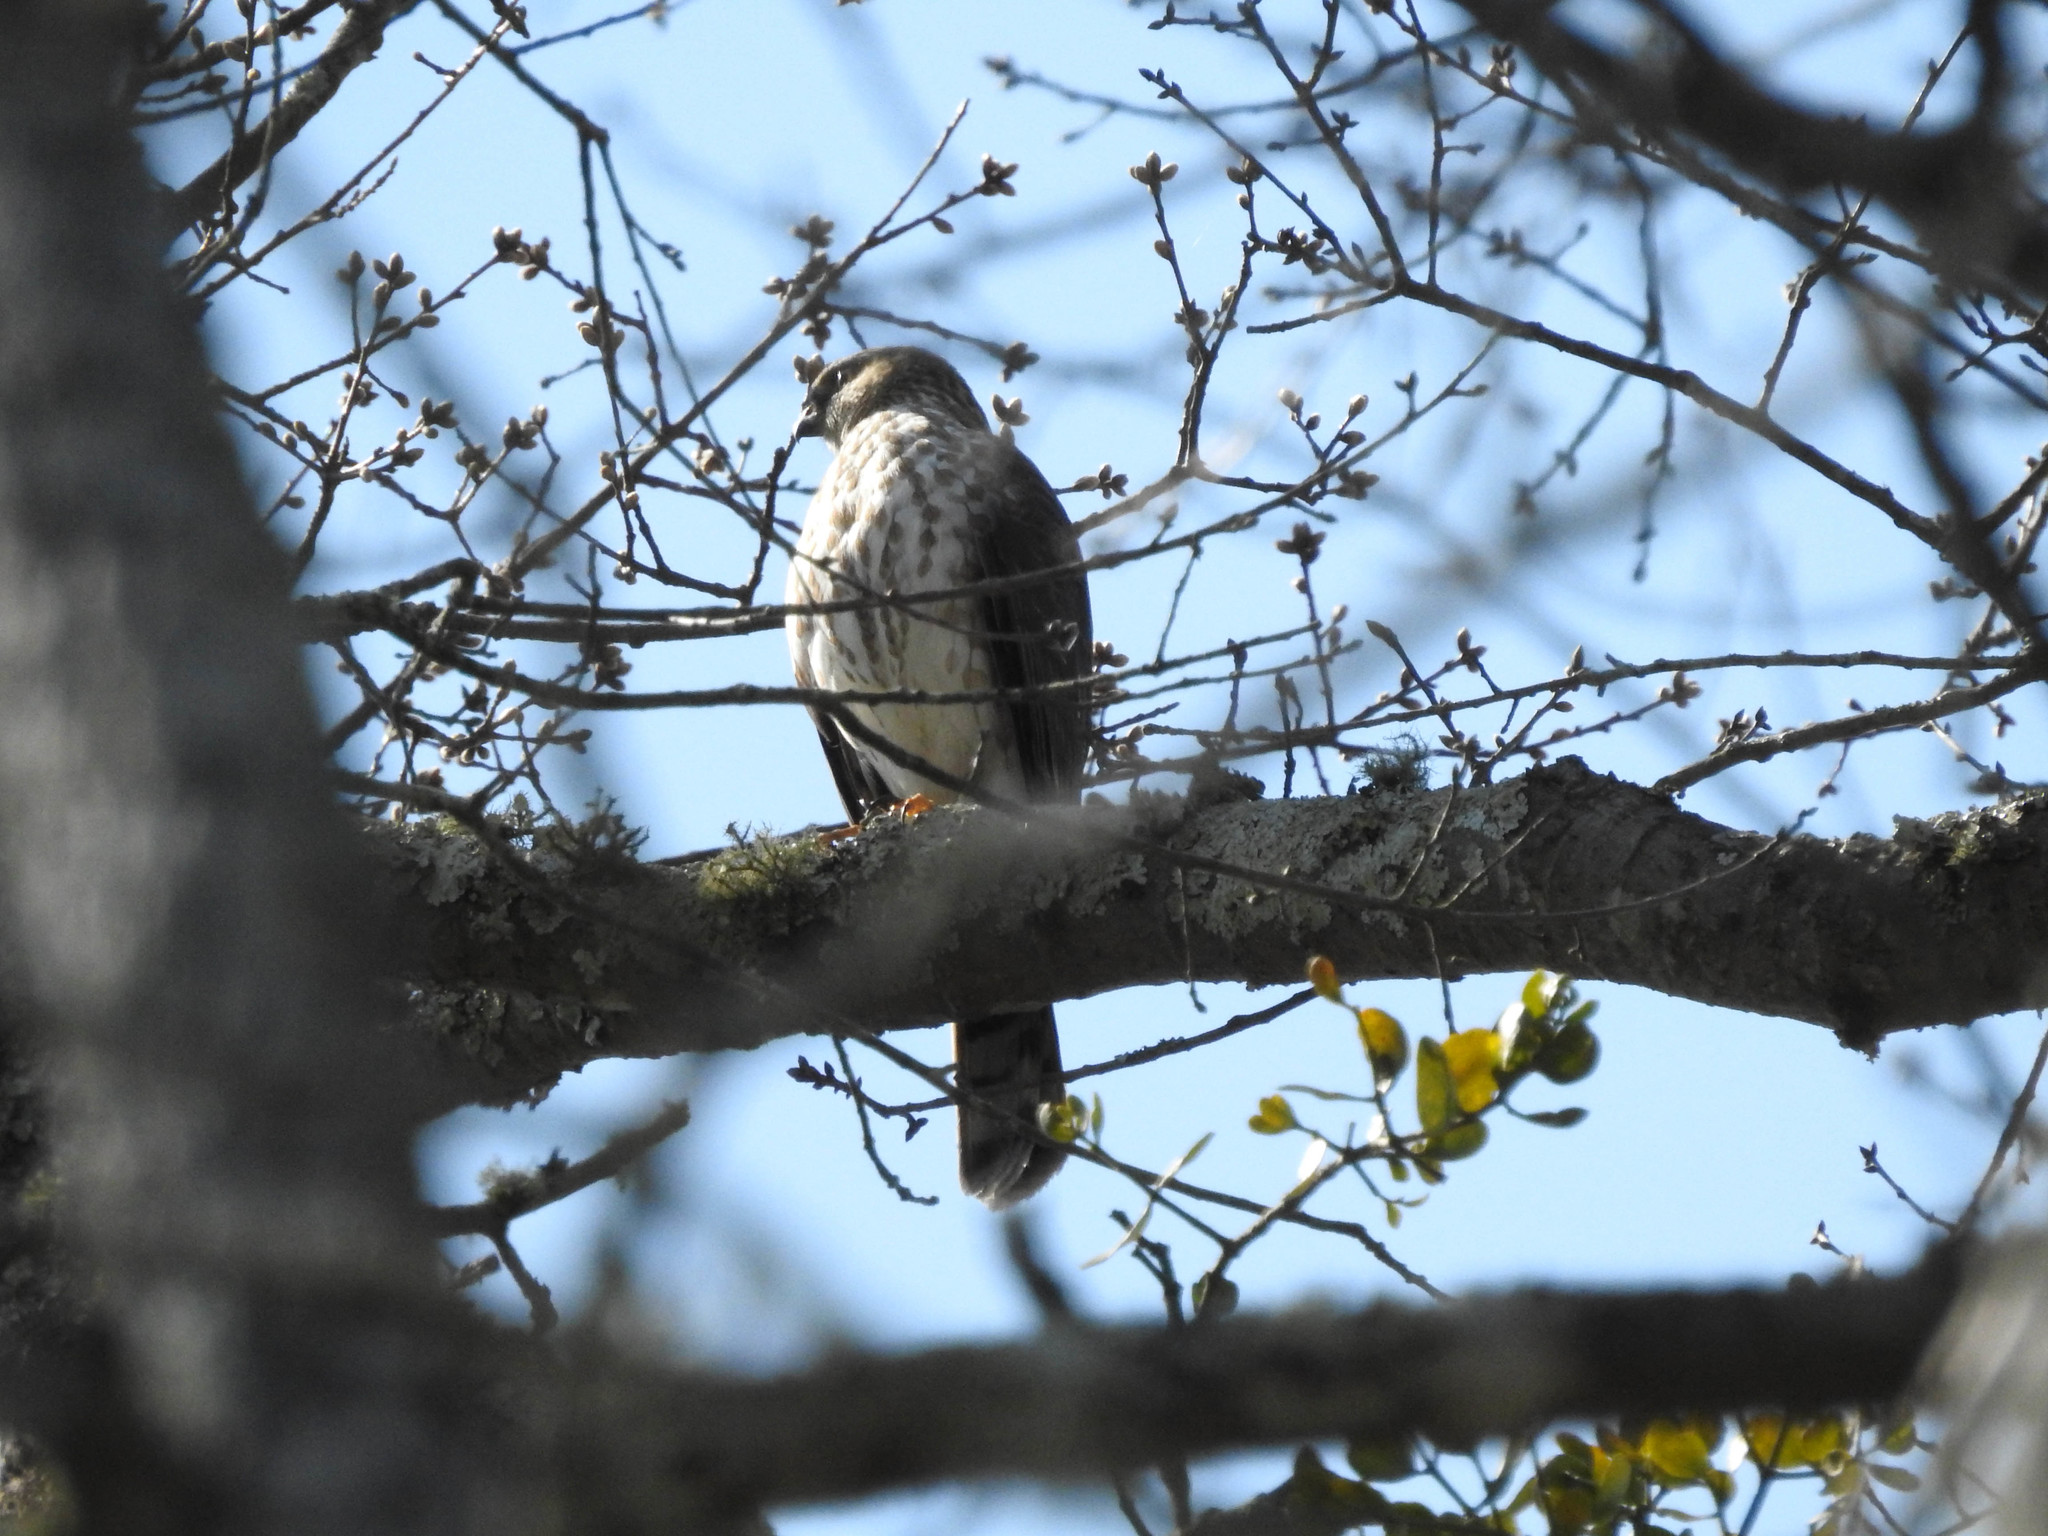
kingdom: Animalia
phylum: Chordata
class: Aves
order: Accipitriformes
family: Accipitridae
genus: Accipiter
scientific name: Accipiter striatus
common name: Sharp-shinned hawk
